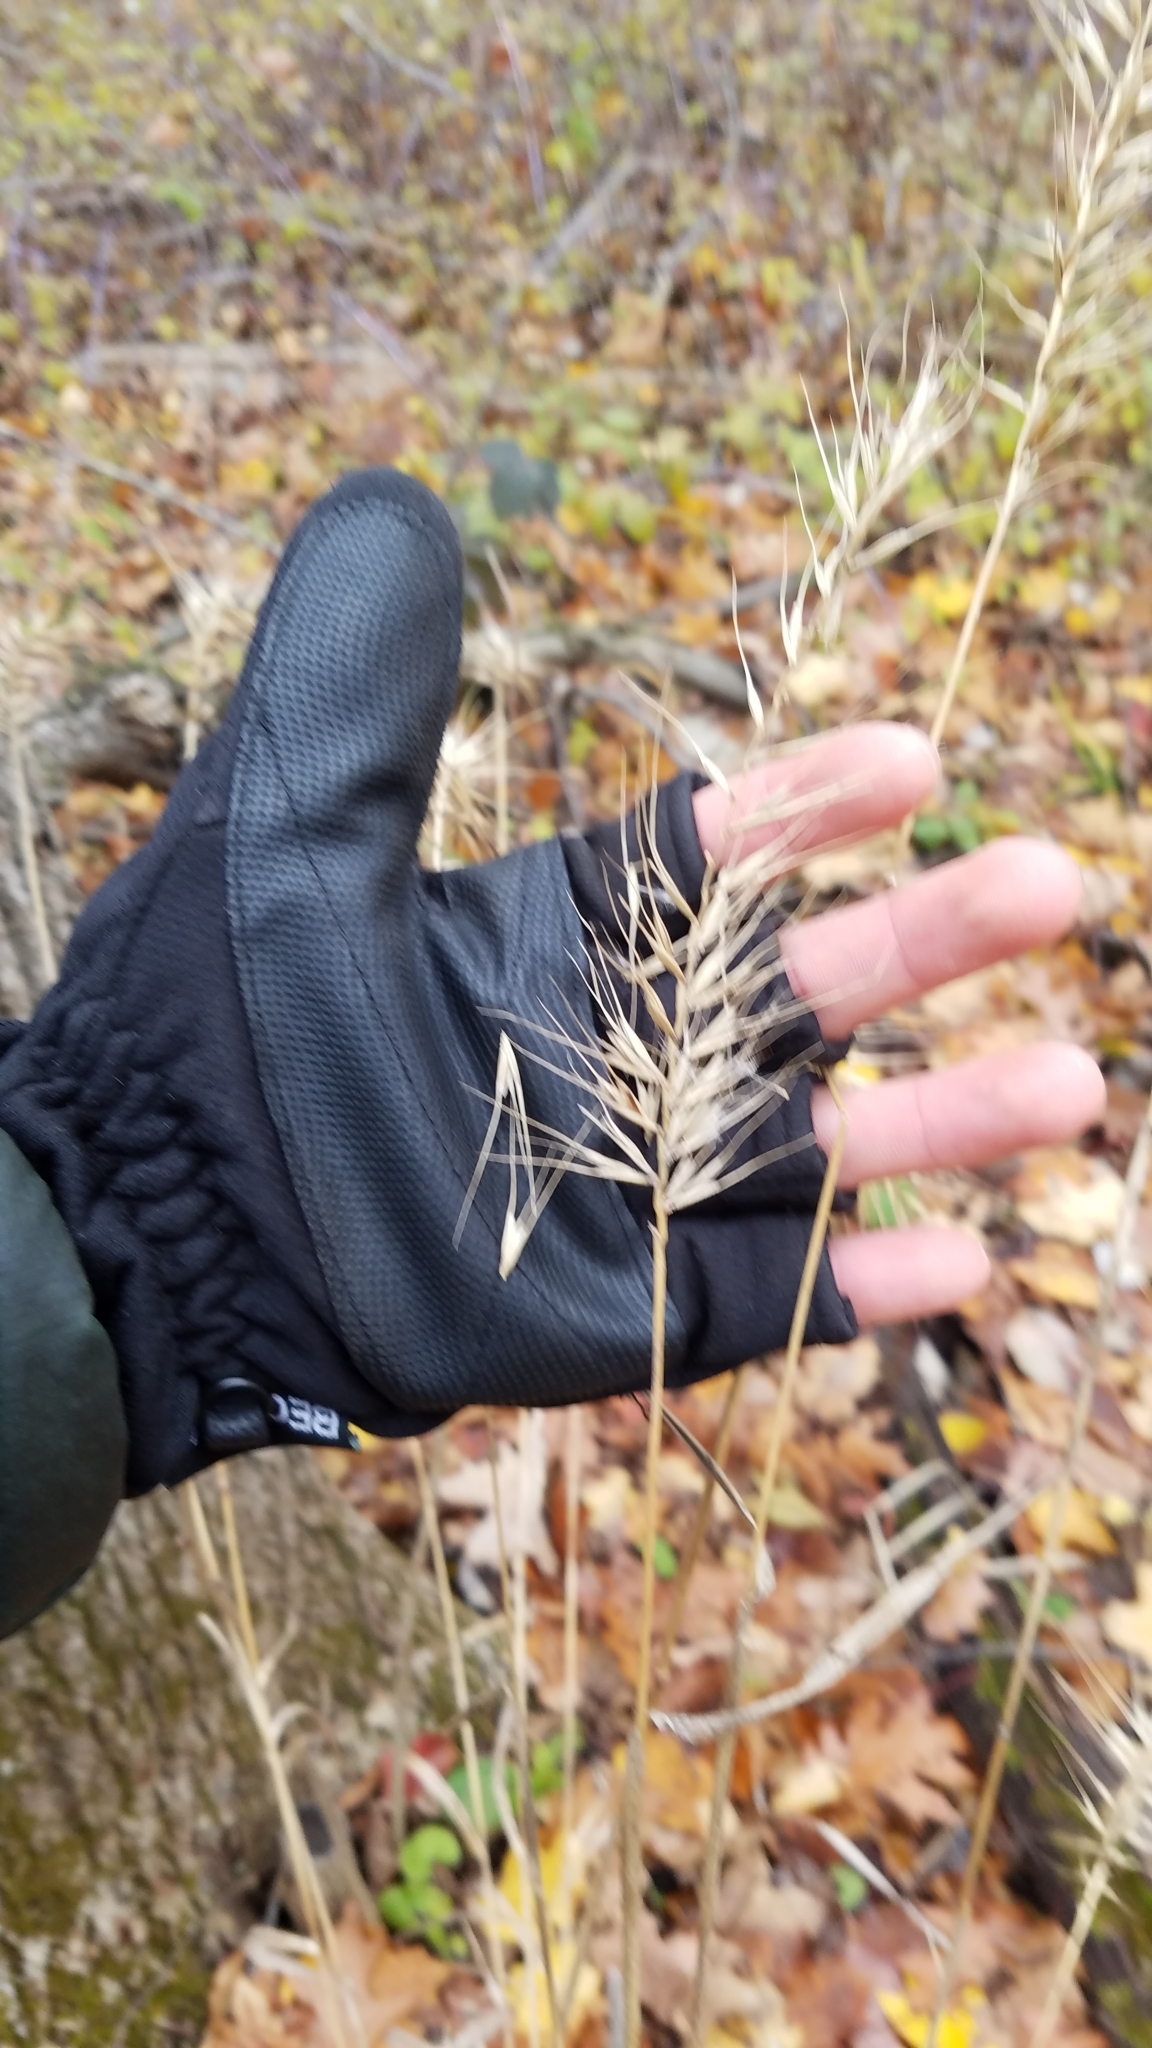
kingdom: Plantae
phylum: Tracheophyta
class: Liliopsida
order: Poales
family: Poaceae
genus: Elymus
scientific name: Elymus hystrix
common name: Bottlebrush grass
